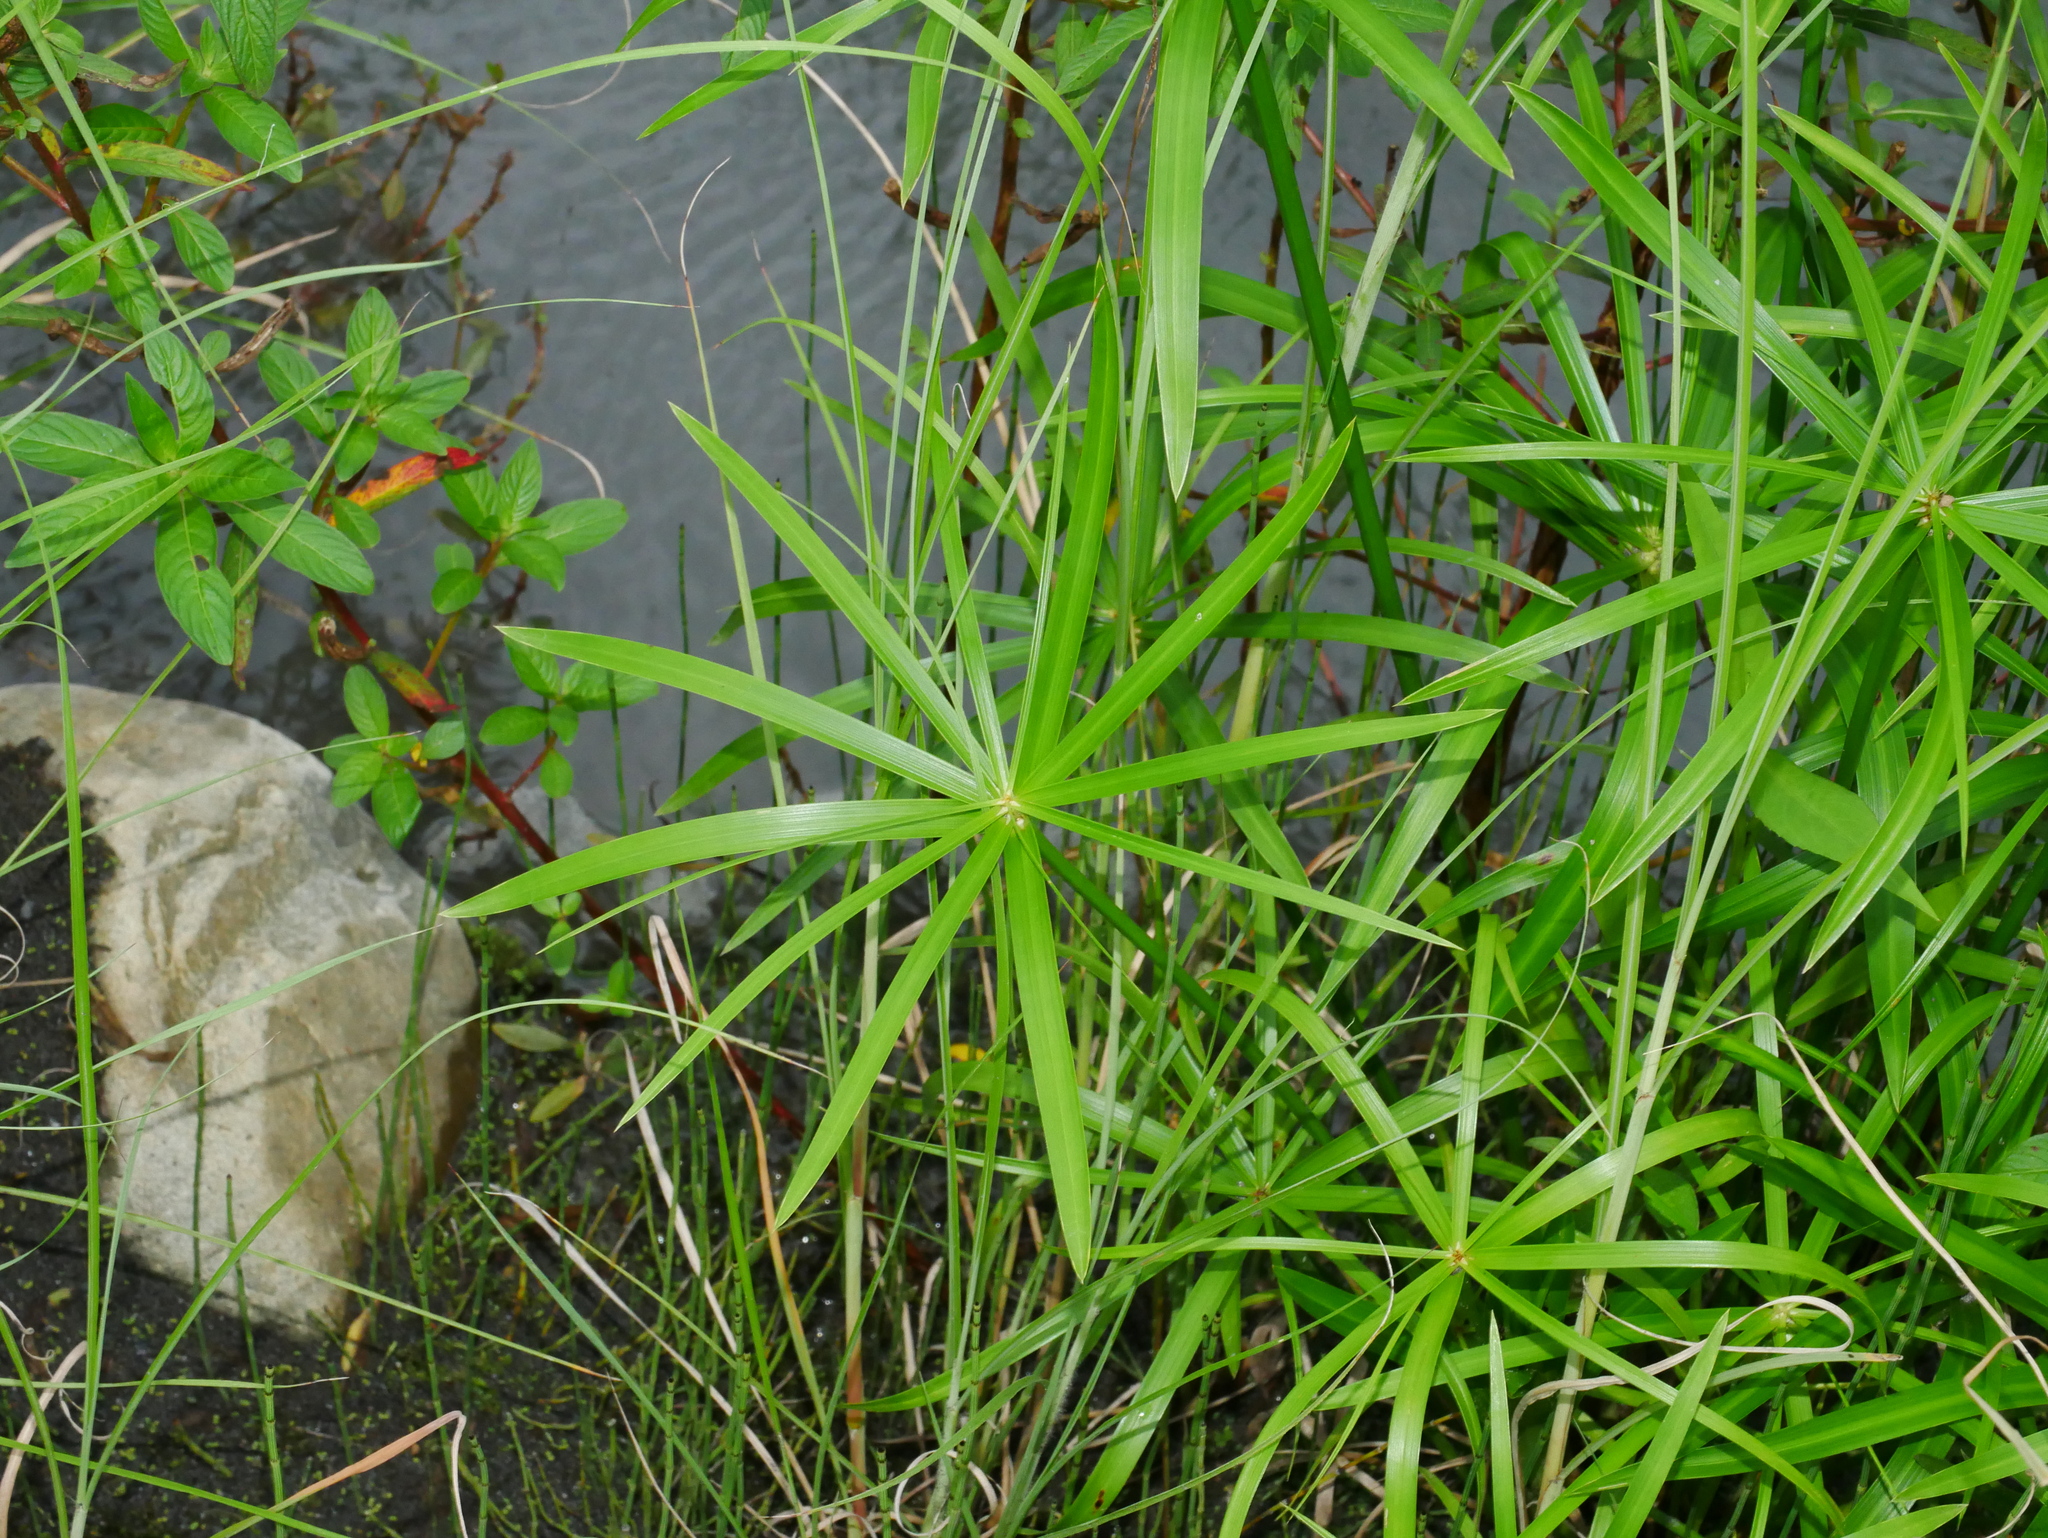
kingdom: Plantae
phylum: Tracheophyta
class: Liliopsida
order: Poales
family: Cyperaceae
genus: Cyperus
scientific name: Cyperus alternifolius
